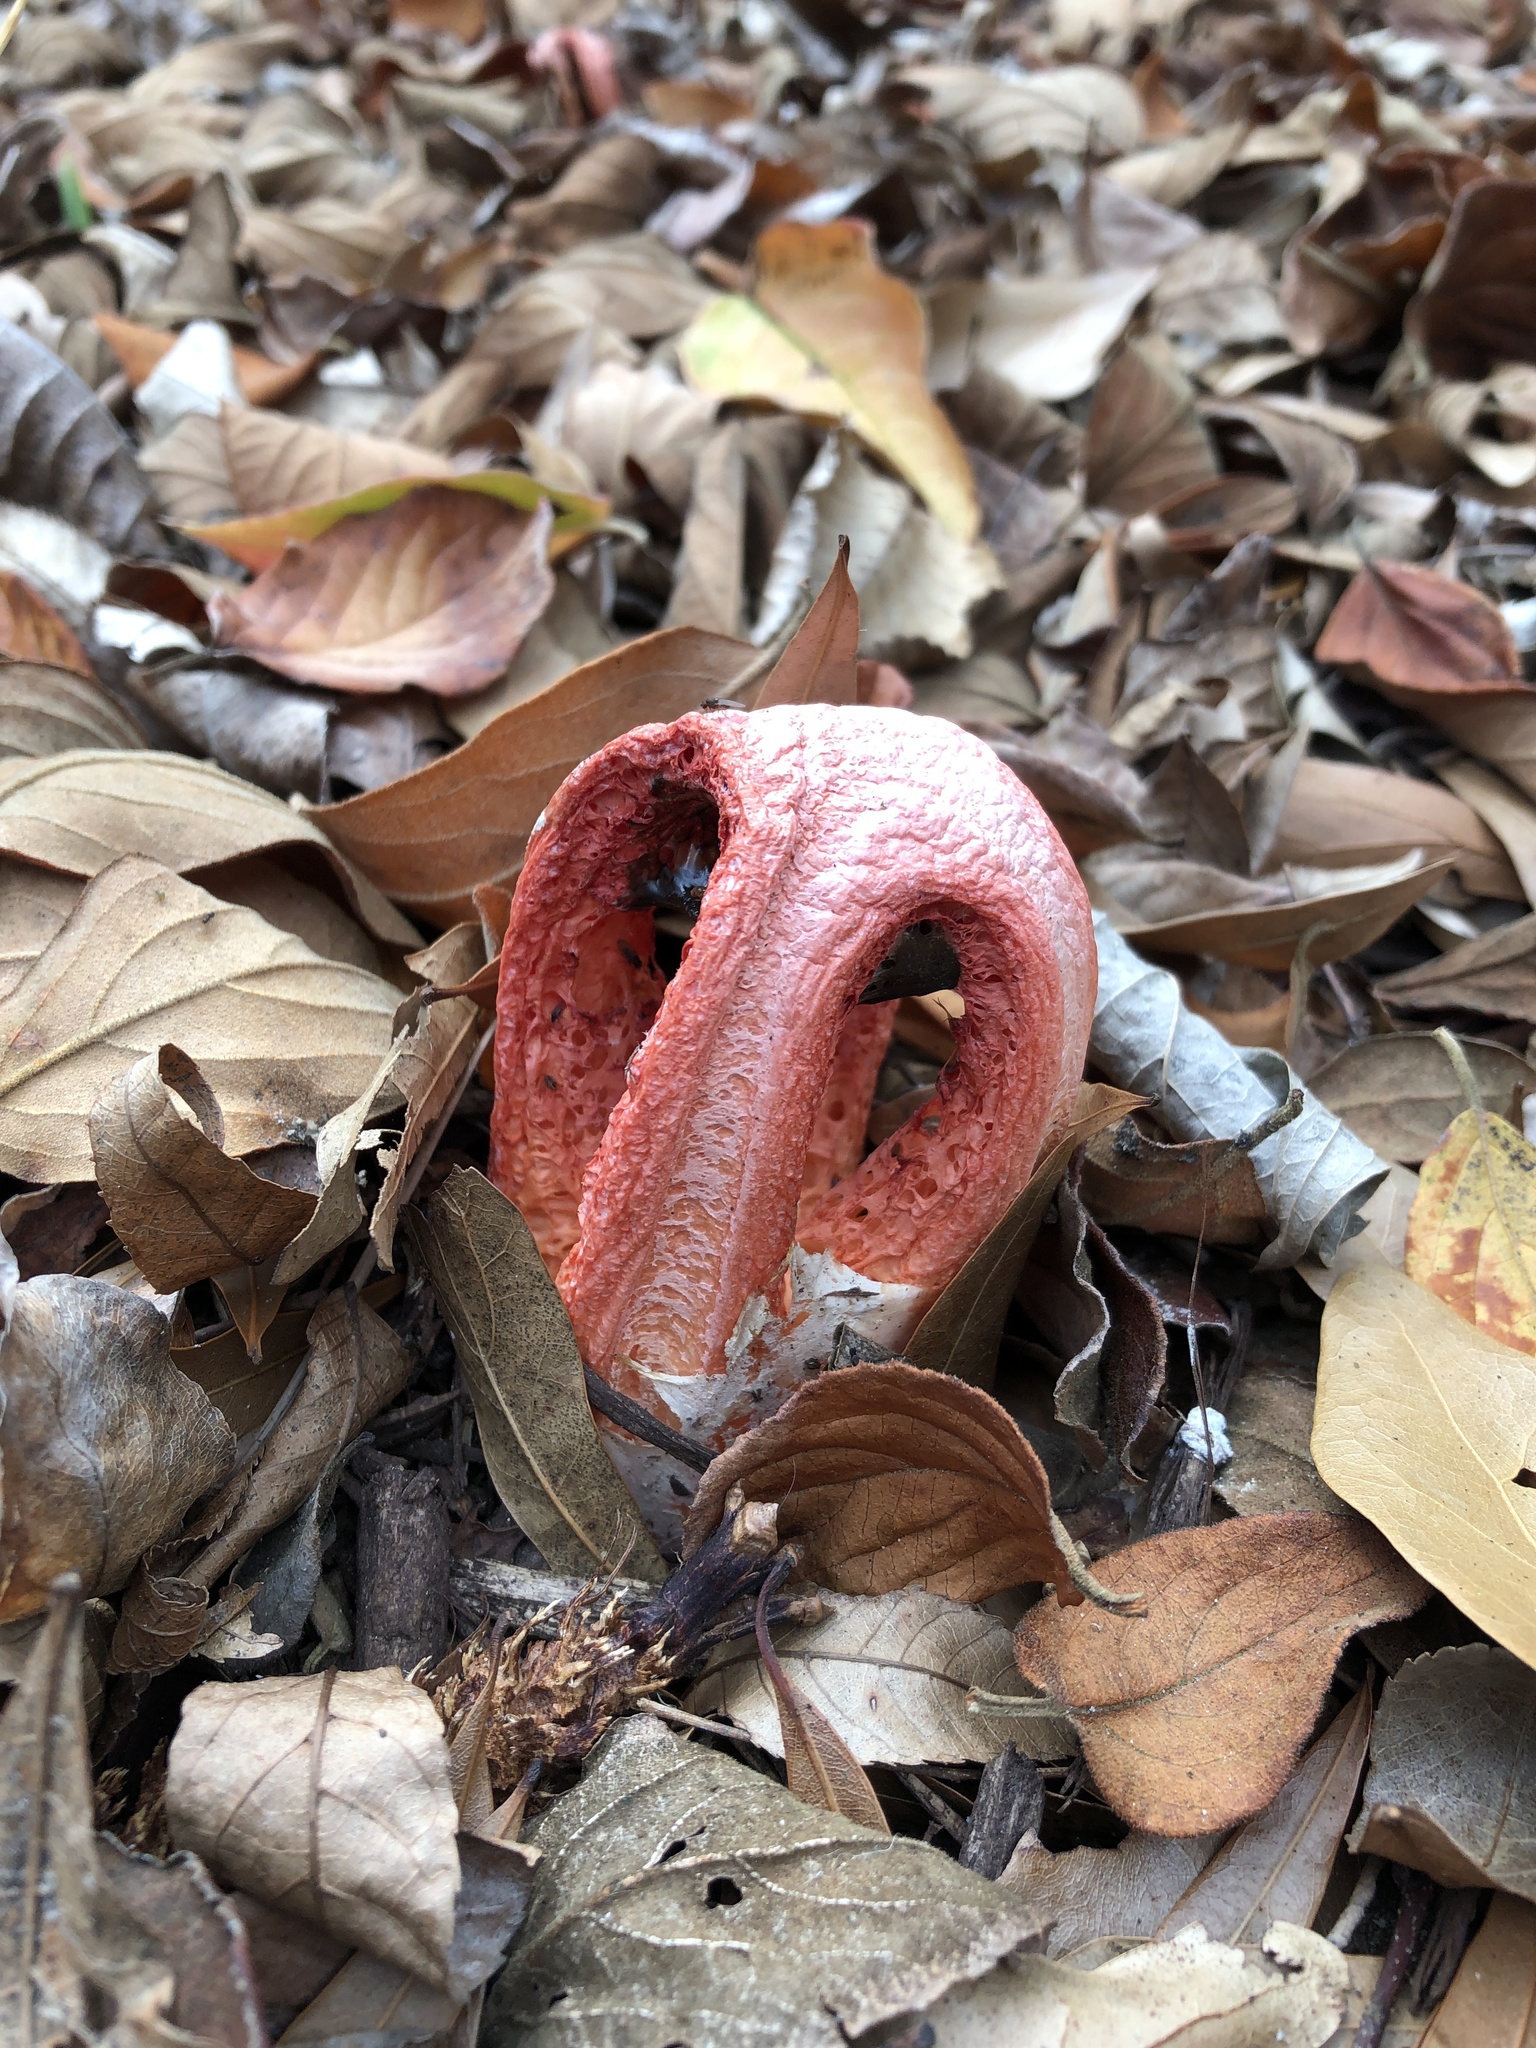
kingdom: Fungi
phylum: Basidiomycota
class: Agaricomycetes
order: Phallales
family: Phallaceae
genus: Clathrus
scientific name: Clathrus columnatus
